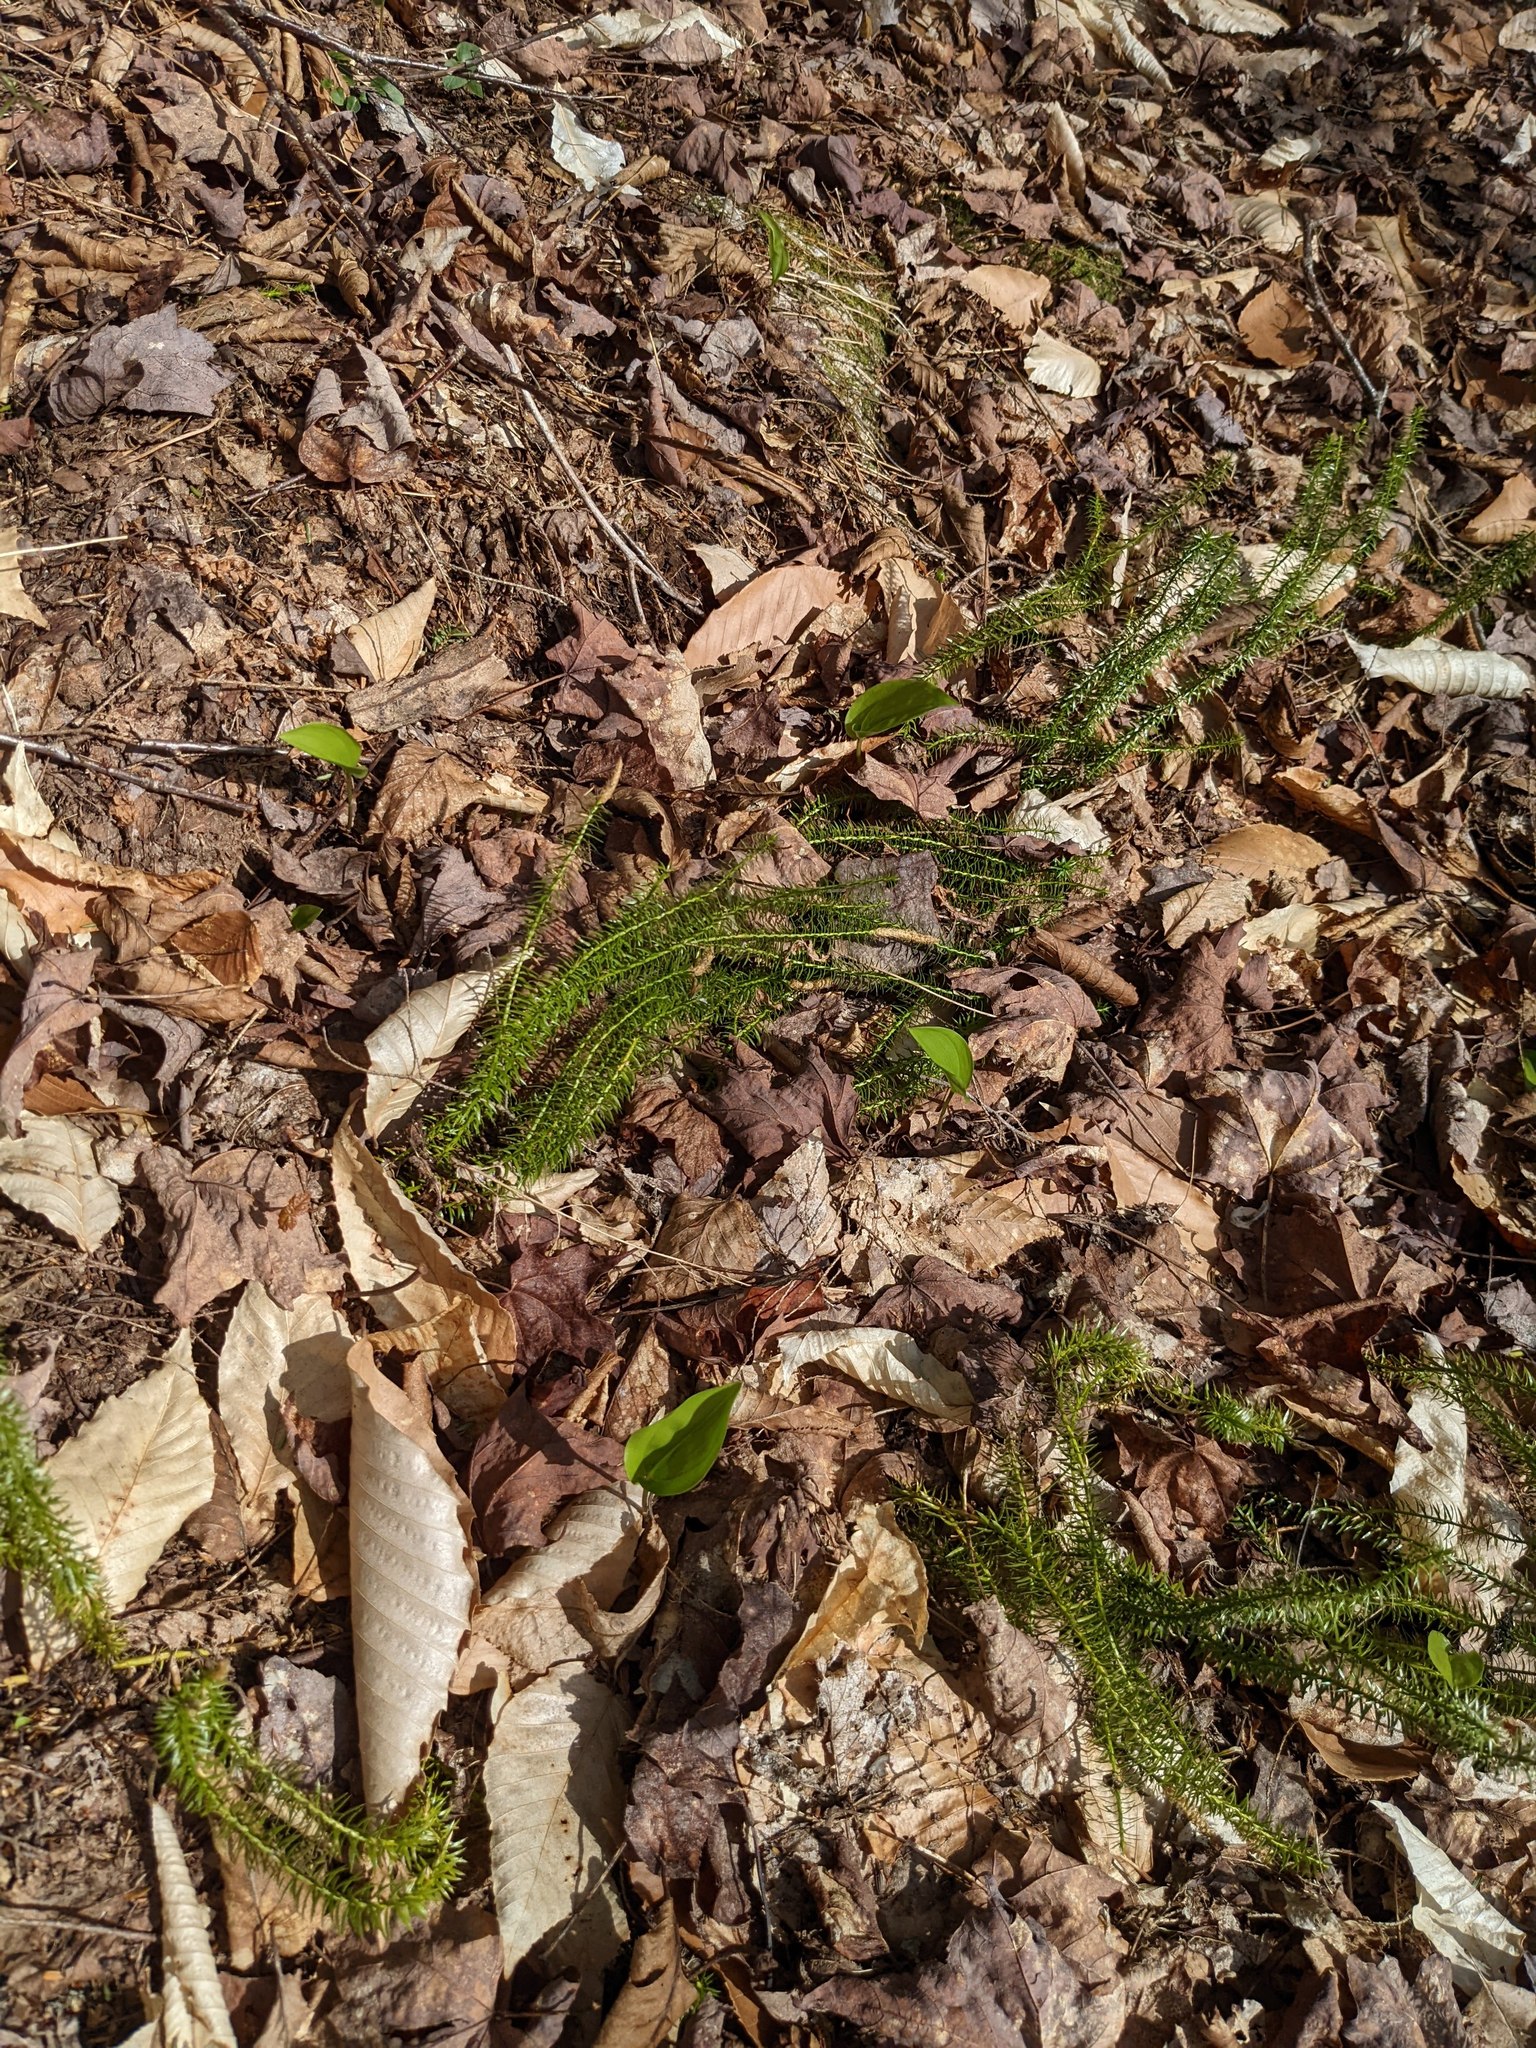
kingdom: Plantae
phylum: Tracheophyta
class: Liliopsida
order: Asparagales
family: Asparagaceae
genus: Maianthemum
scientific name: Maianthemum canadense
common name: False lily-of-the-valley
